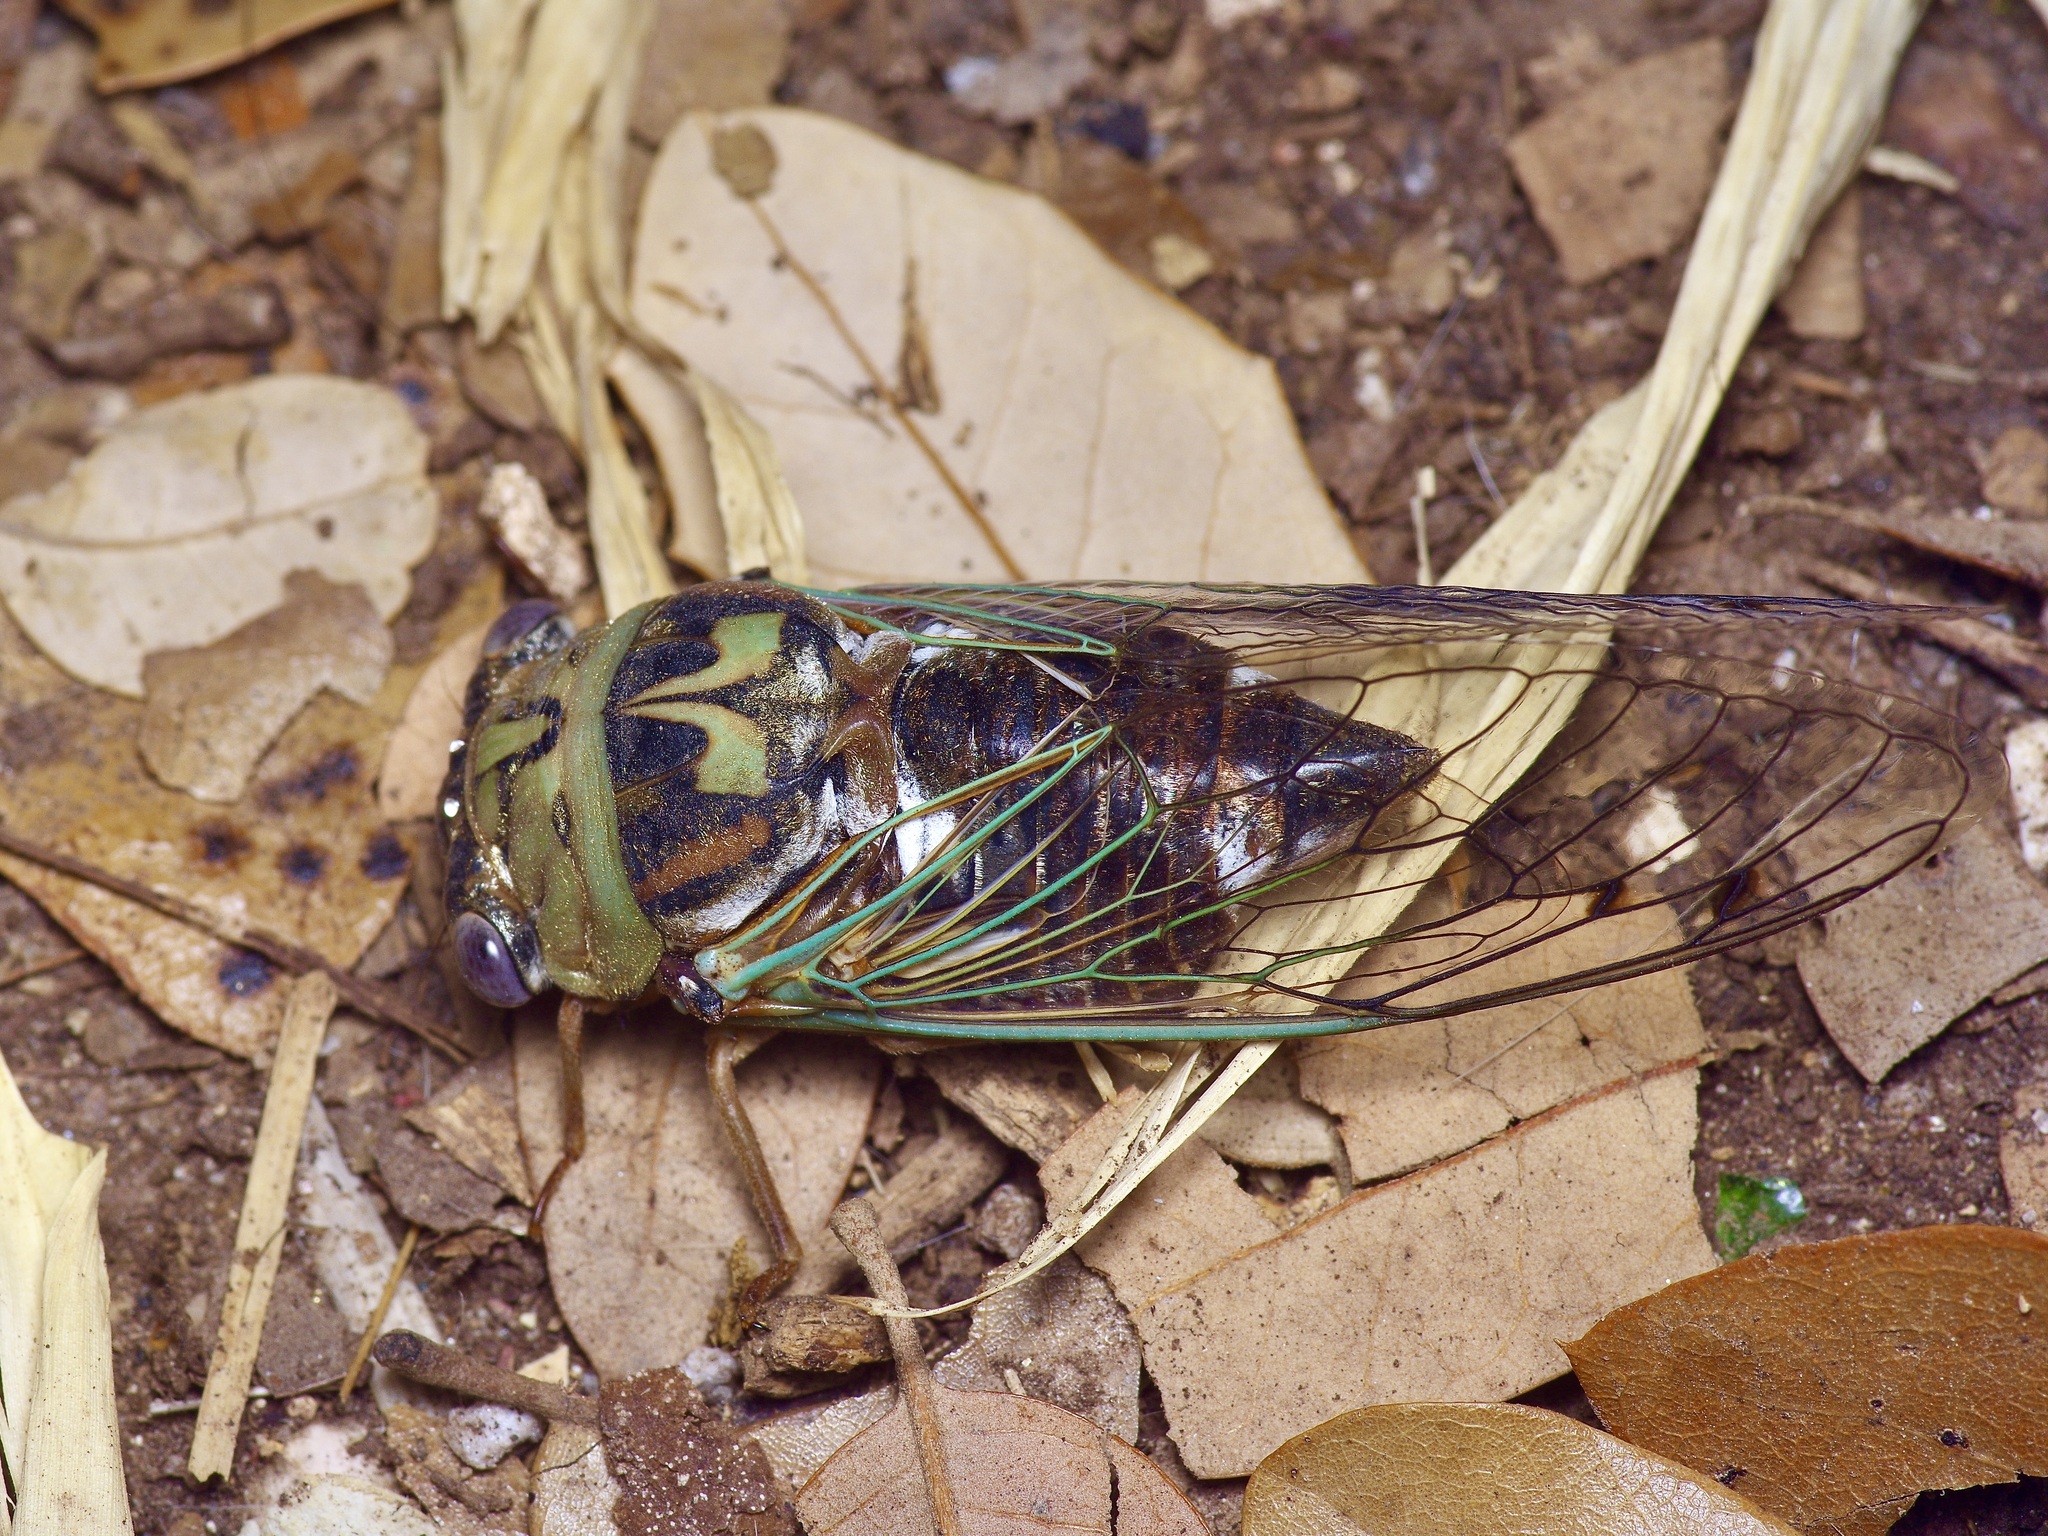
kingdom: Animalia
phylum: Arthropoda
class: Insecta
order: Hemiptera
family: Cicadidae
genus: Megatibicen
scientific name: Megatibicen resh
